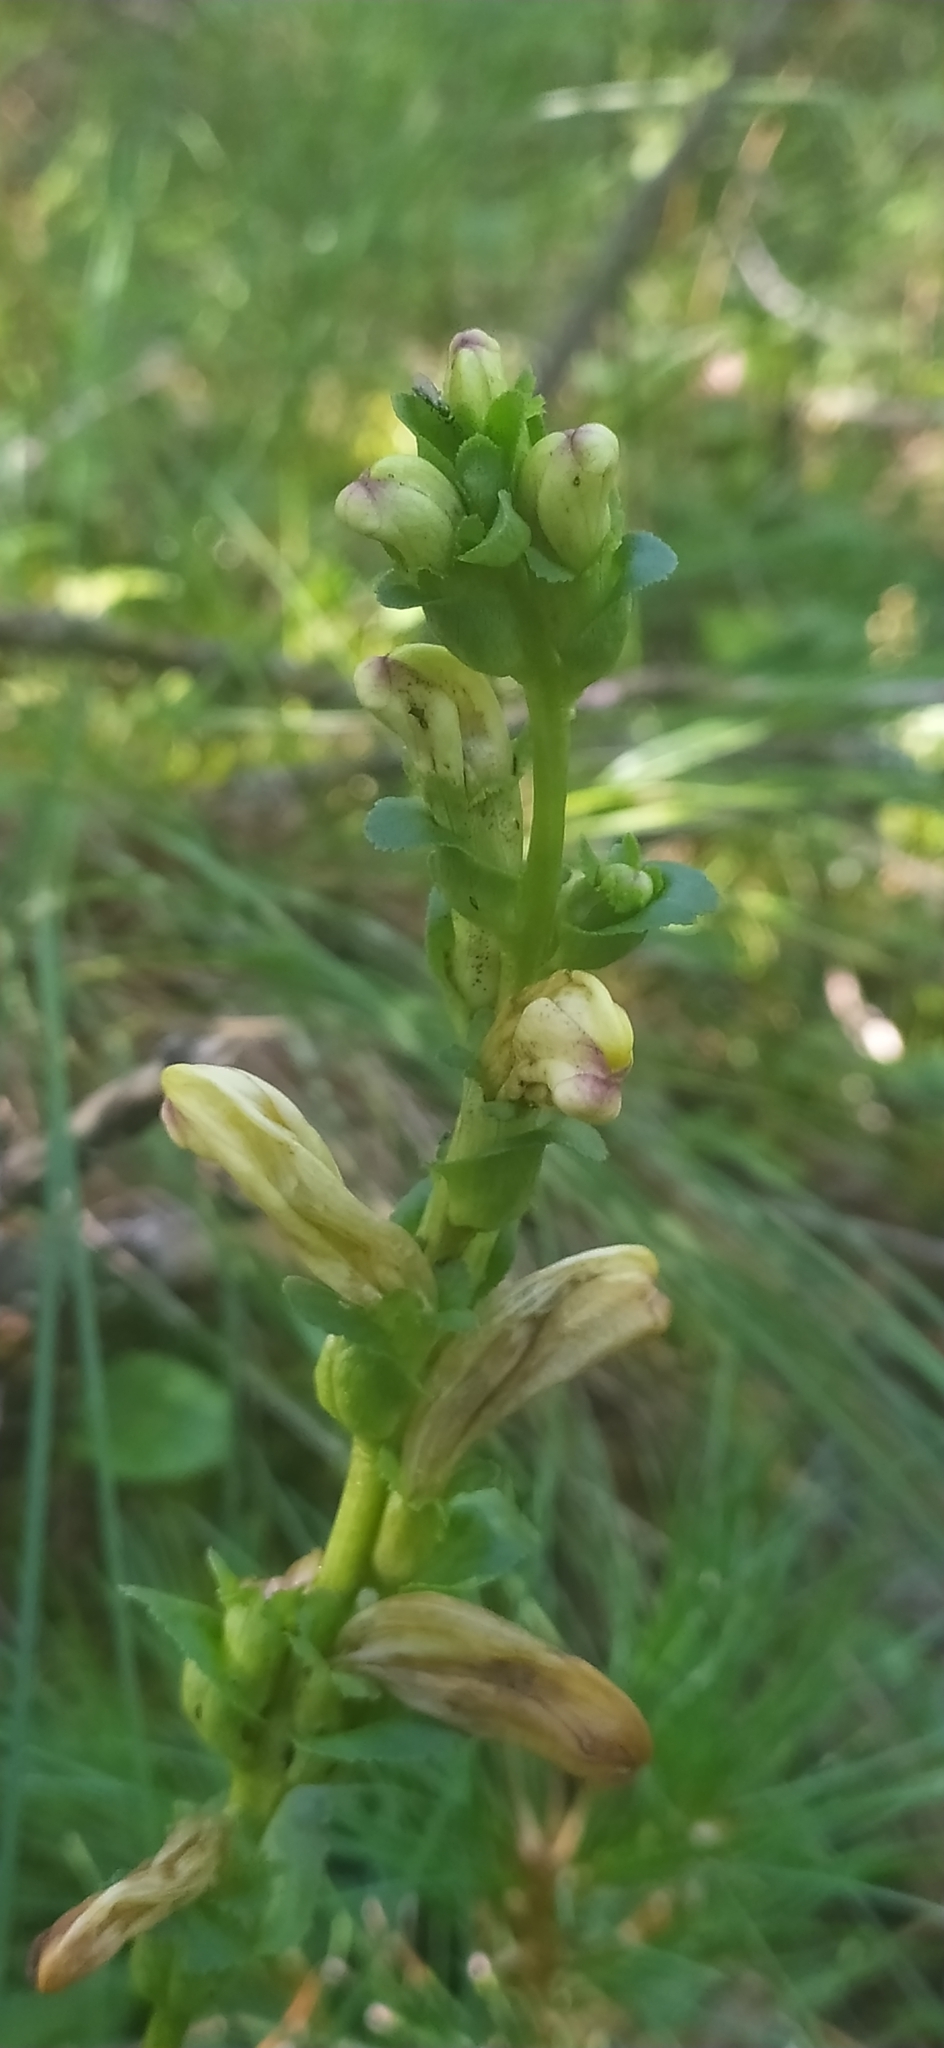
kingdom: Plantae
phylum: Tracheophyta
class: Magnoliopsida
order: Lamiales
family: Orobanchaceae
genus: Pedicularis
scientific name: Pedicularis sceptrum-carolinum
